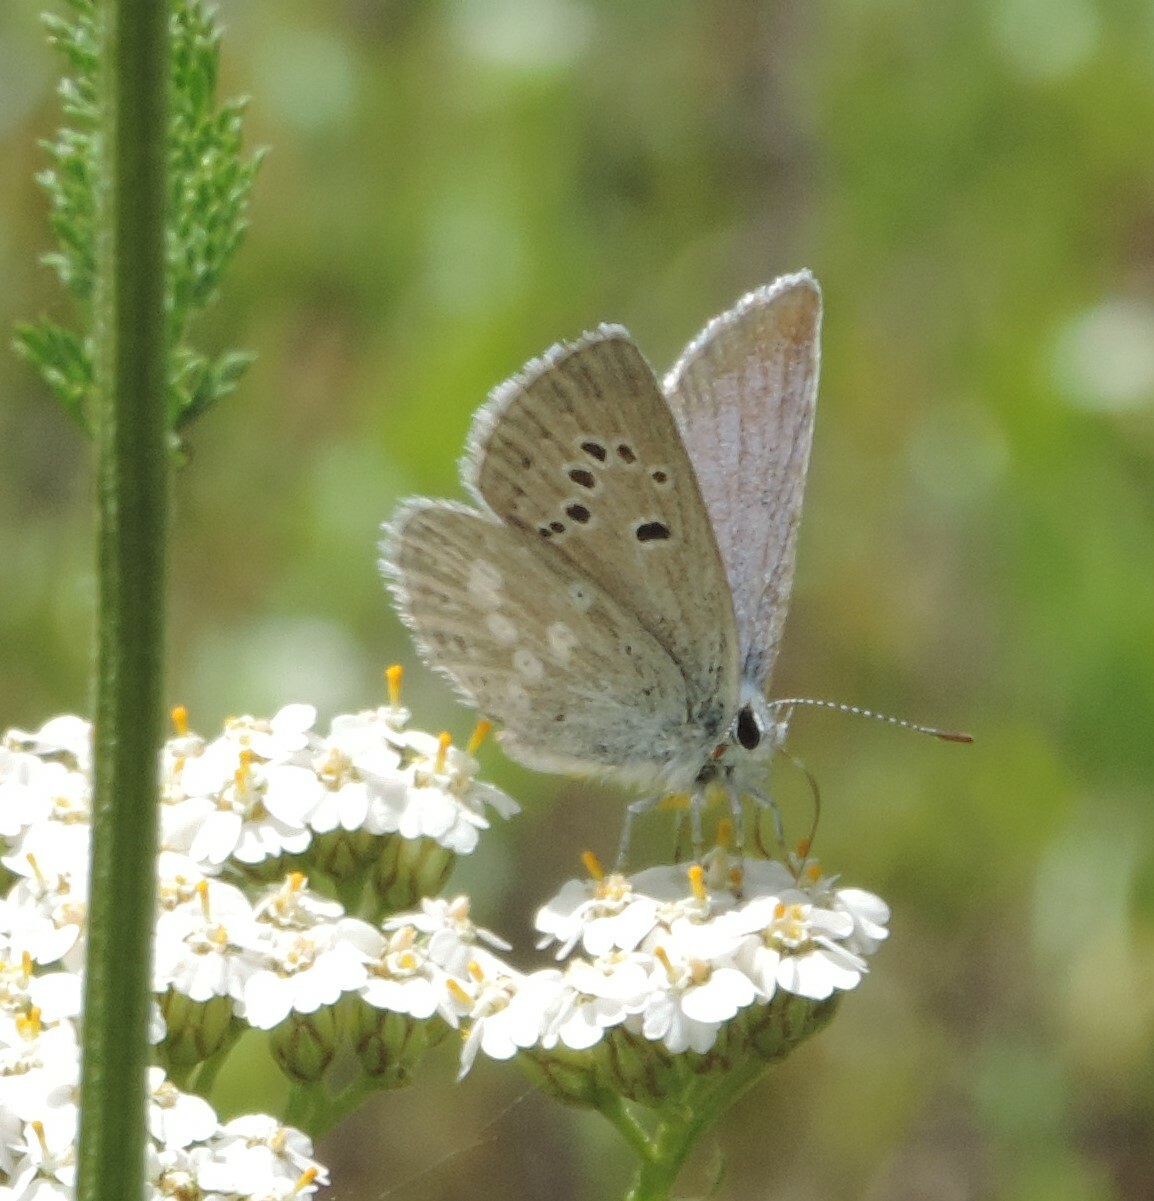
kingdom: Animalia
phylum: Arthropoda
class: Insecta
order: Lepidoptera
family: Lycaenidae
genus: Icaricia
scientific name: Icaricia icarioides
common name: Boisduval's blue
